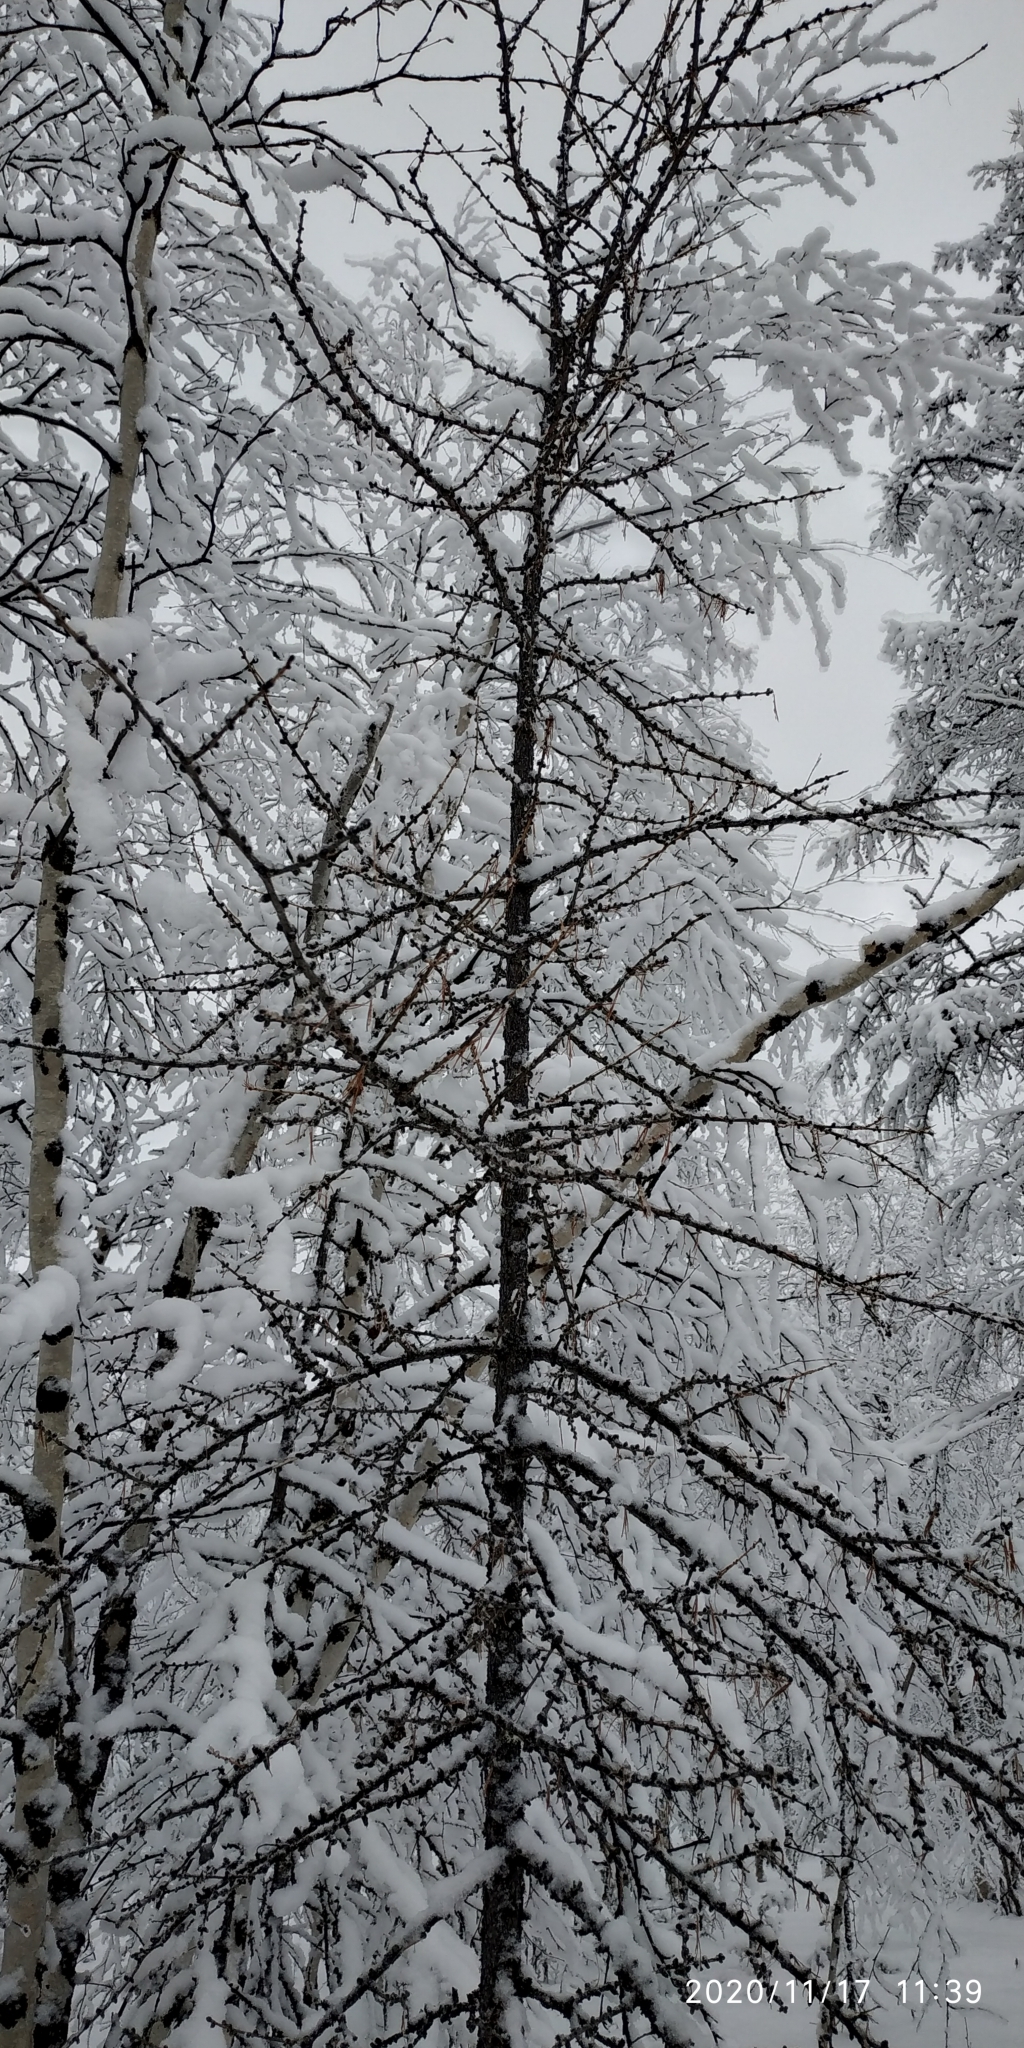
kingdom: Plantae
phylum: Tracheophyta
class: Pinopsida
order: Pinales
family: Pinaceae
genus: Larix
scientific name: Larix sibirica
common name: Siberian larch
